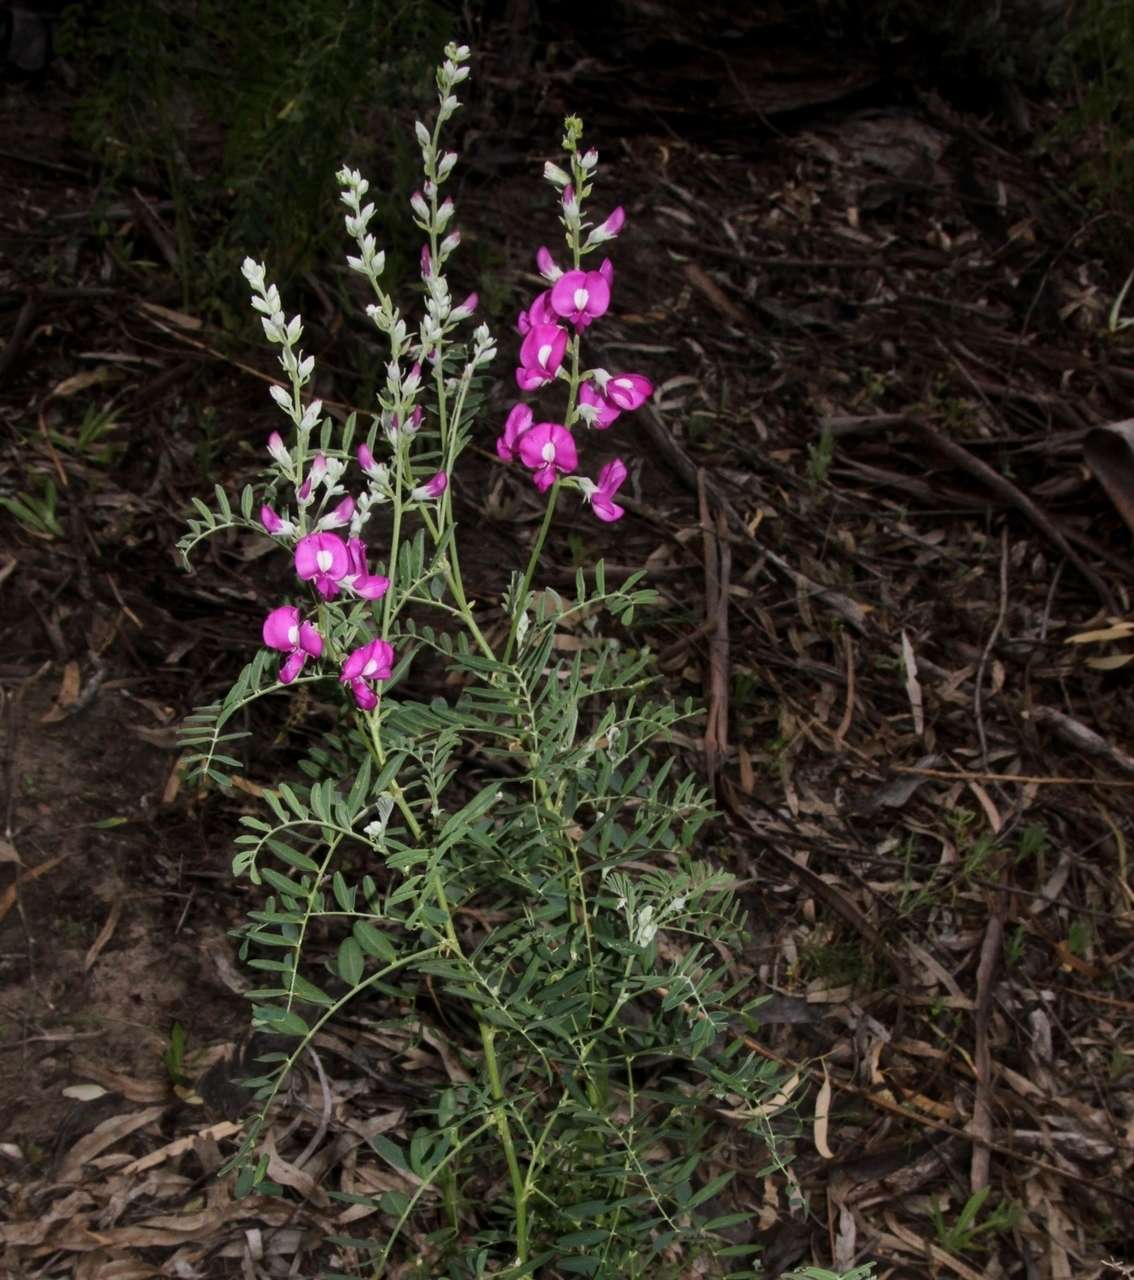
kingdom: Plantae
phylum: Tracheophyta
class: Magnoliopsida
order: Fabales
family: Fabaceae
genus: Swainsona
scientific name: Swainsona greyana
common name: Darling-pea
